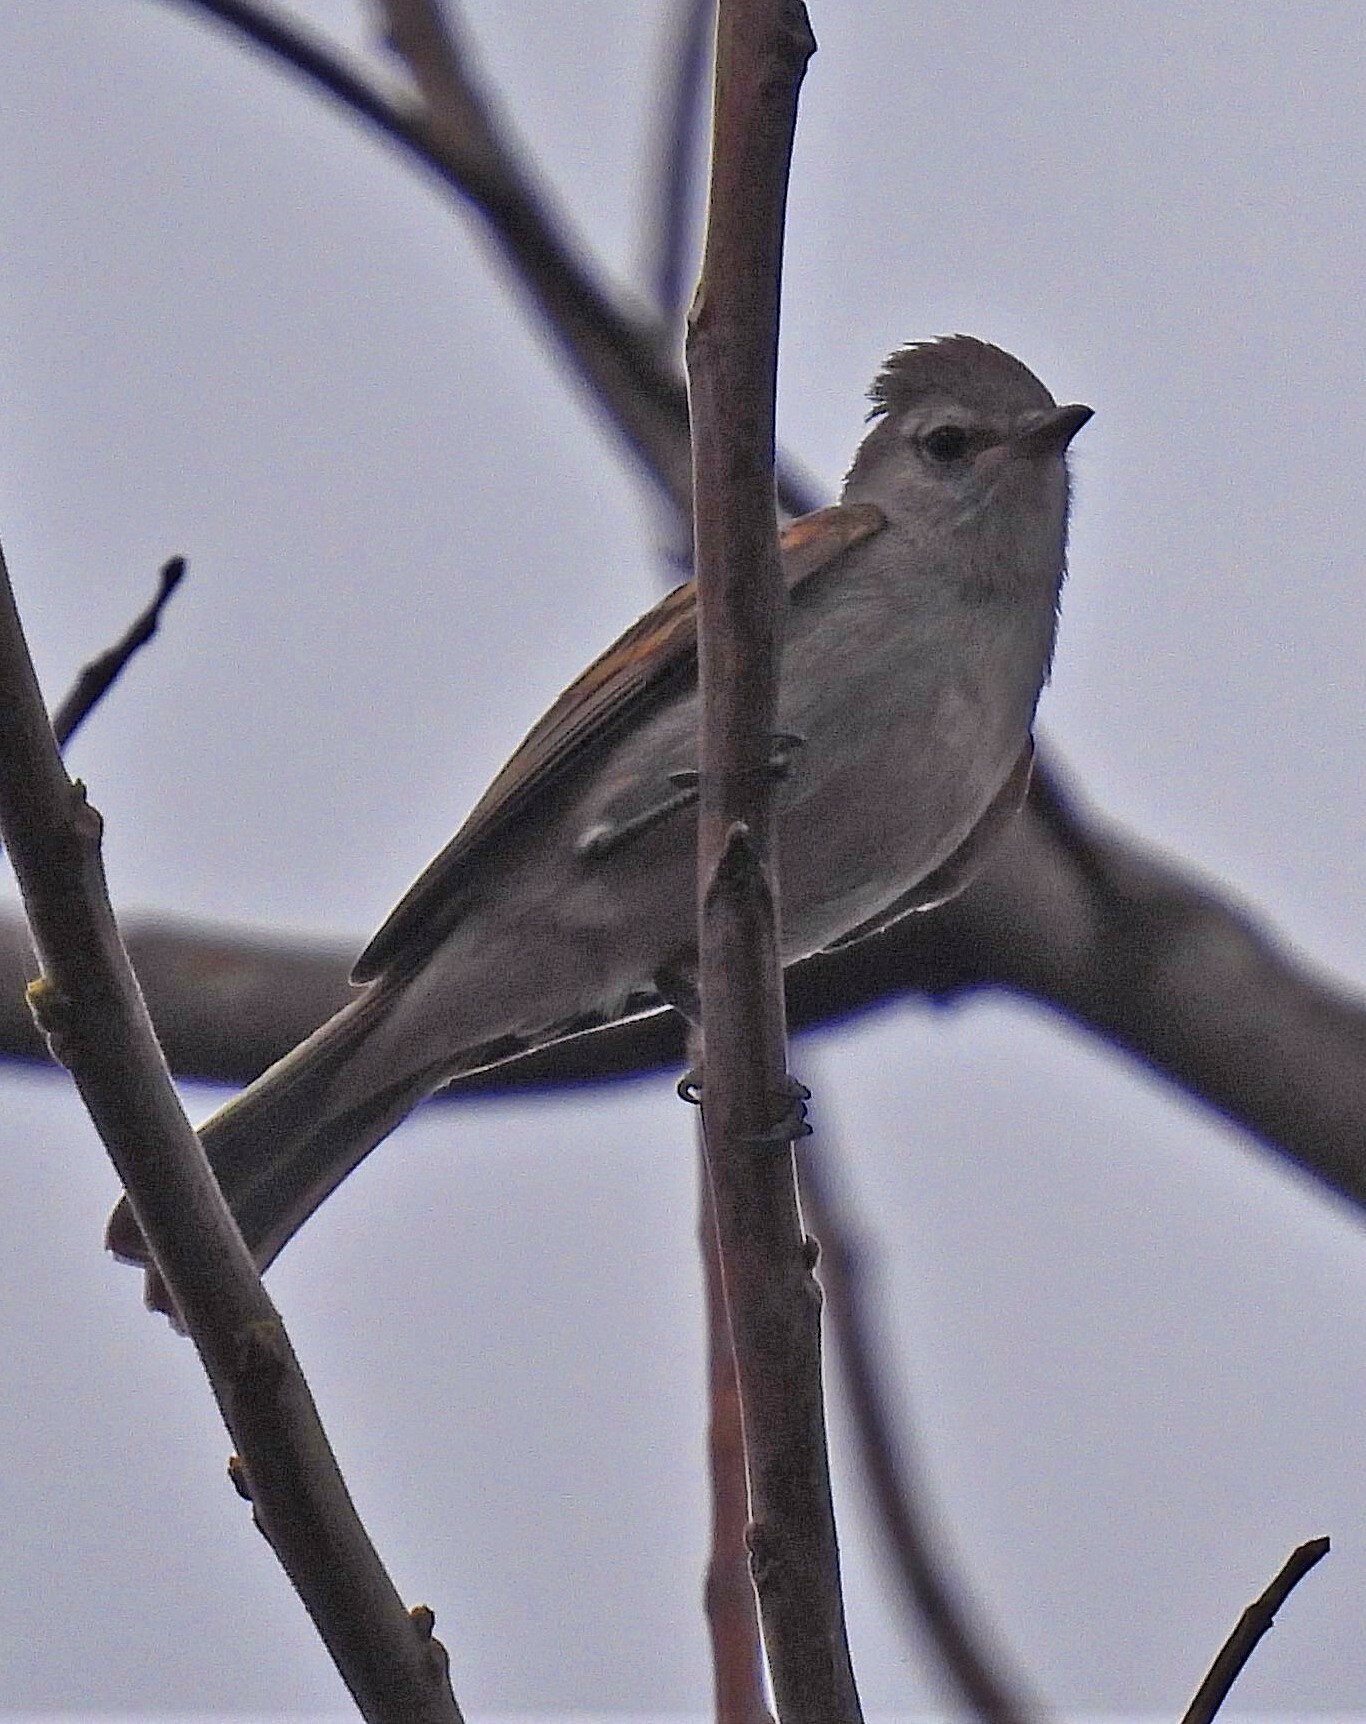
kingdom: Animalia
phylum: Chordata
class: Aves
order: Passeriformes
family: Tyrannidae
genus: Camptostoma
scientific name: Camptostoma obsoletum
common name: Southern beardless-tyrannulet
